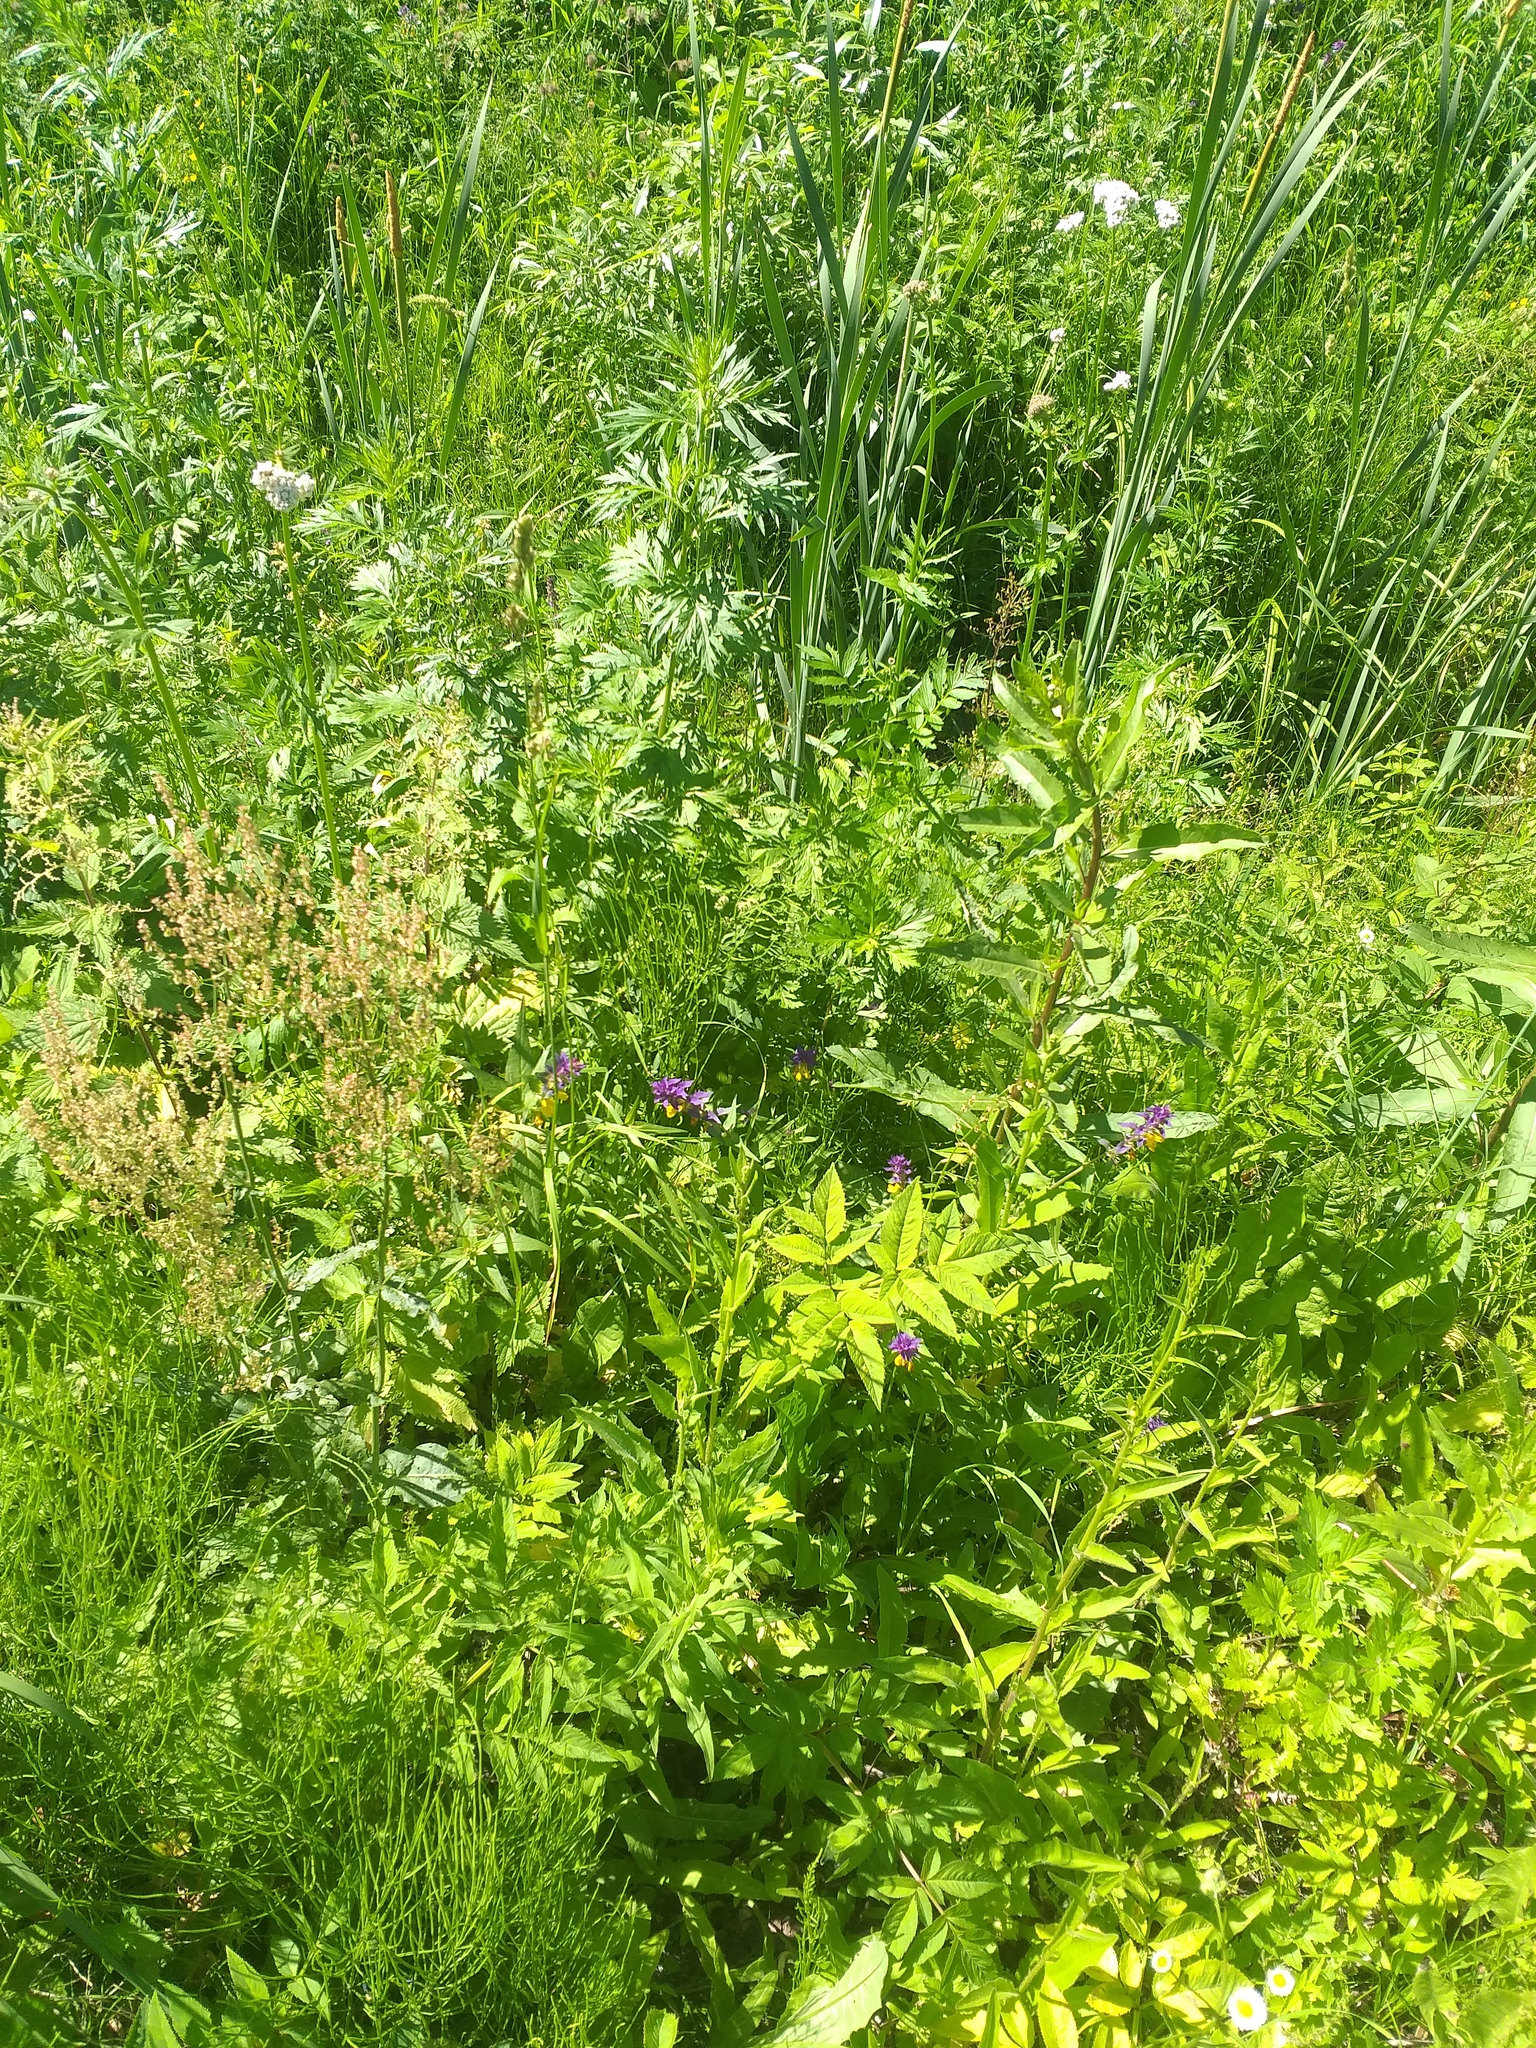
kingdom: Plantae
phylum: Tracheophyta
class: Magnoliopsida
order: Lamiales
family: Orobanchaceae
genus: Melampyrum
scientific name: Melampyrum nemorosum
